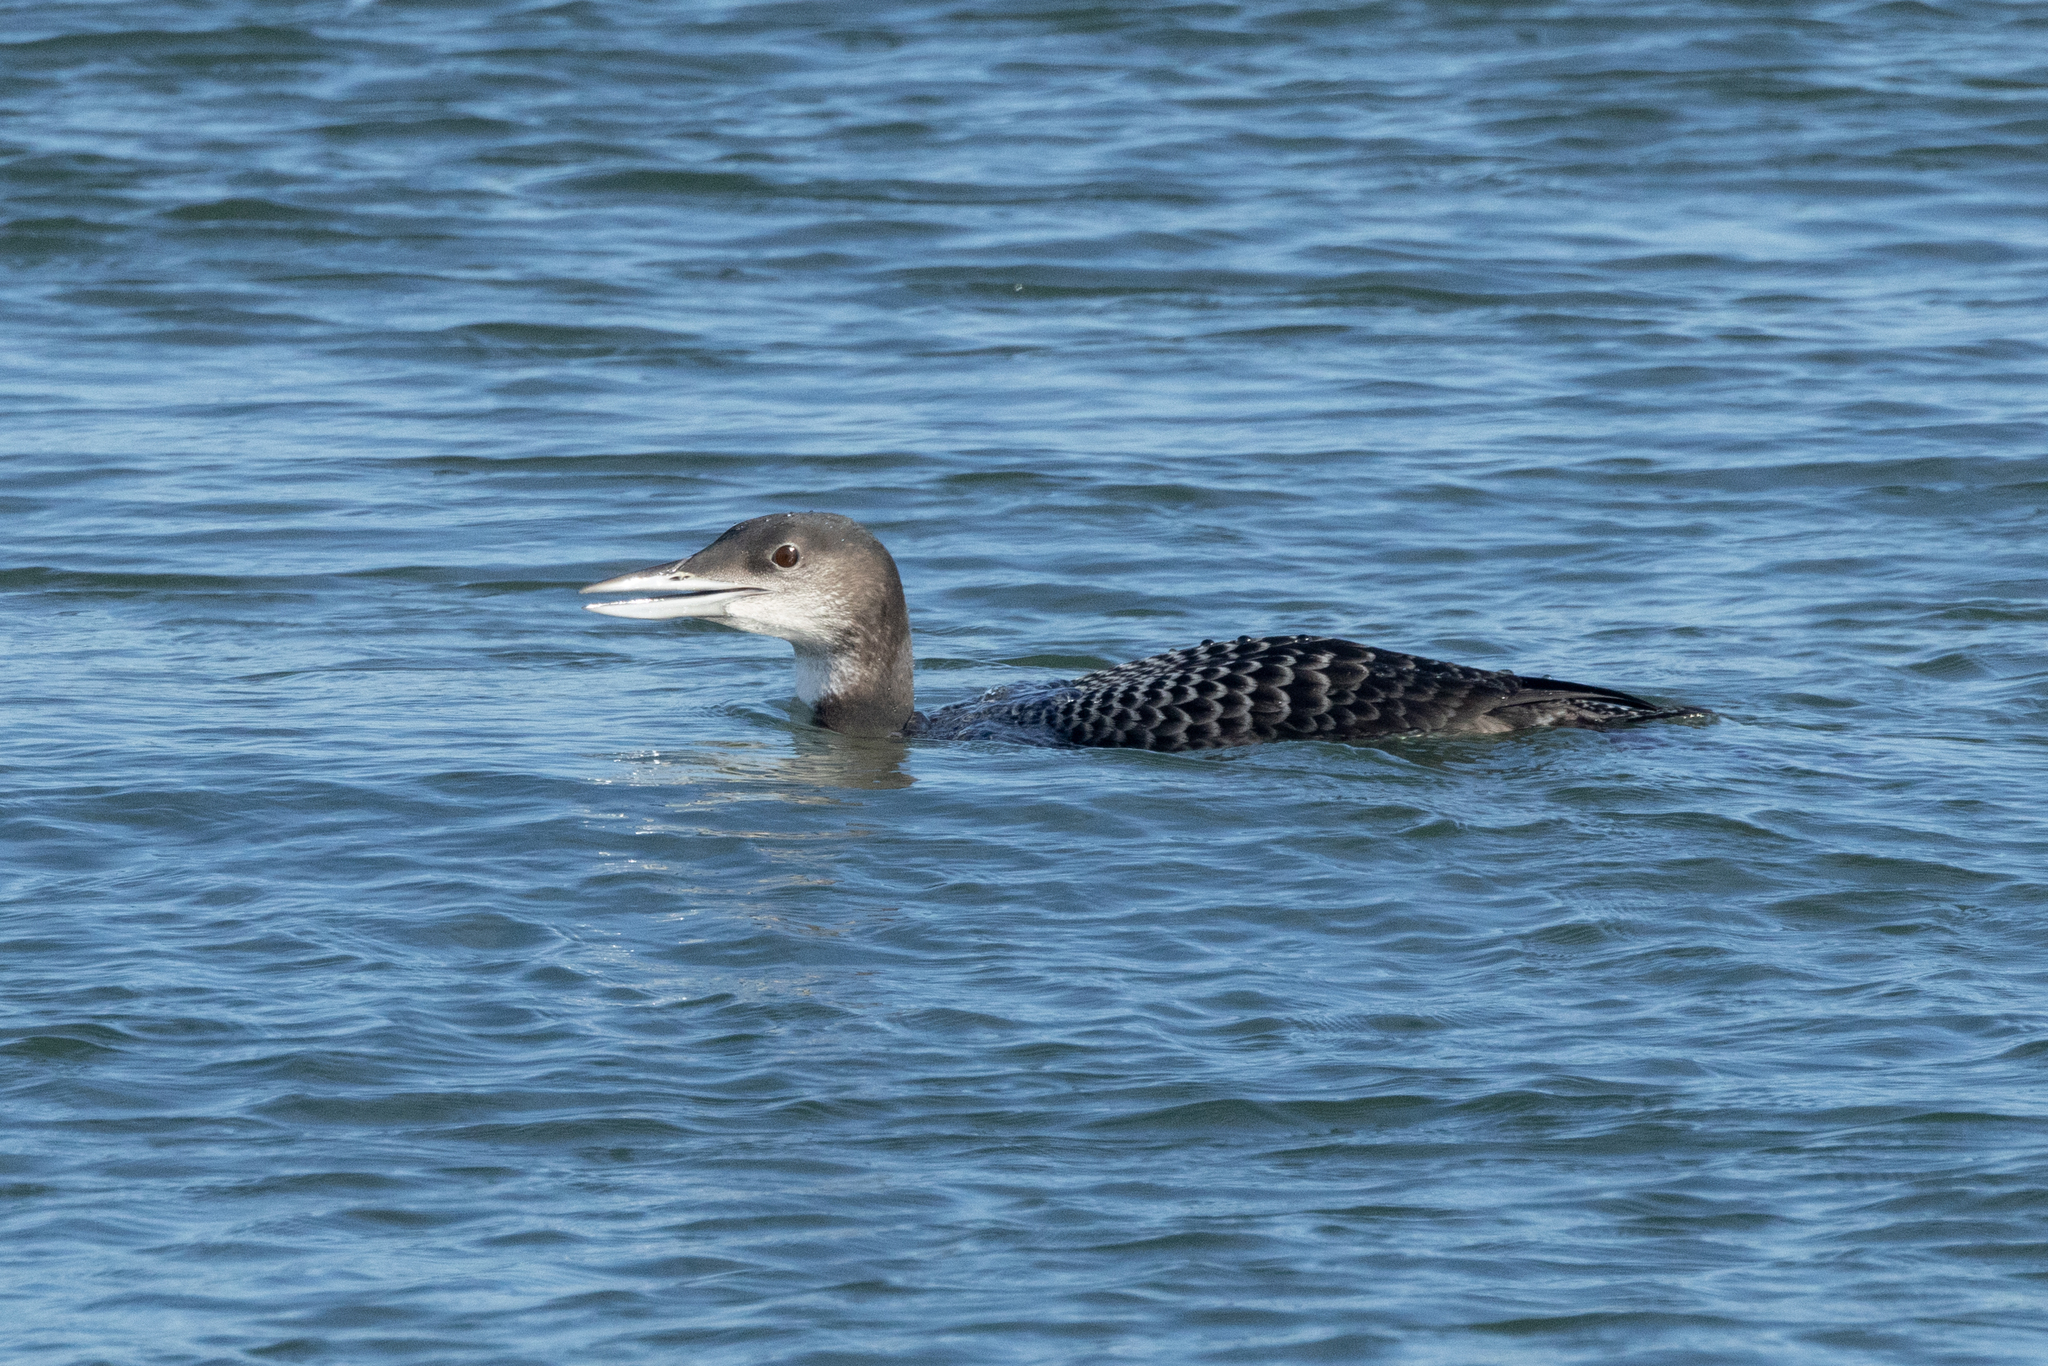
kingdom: Animalia
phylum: Chordata
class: Aves
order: Gaviiformes
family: Gaviidae
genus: Gavia
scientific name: Gavia immer
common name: Common loon
